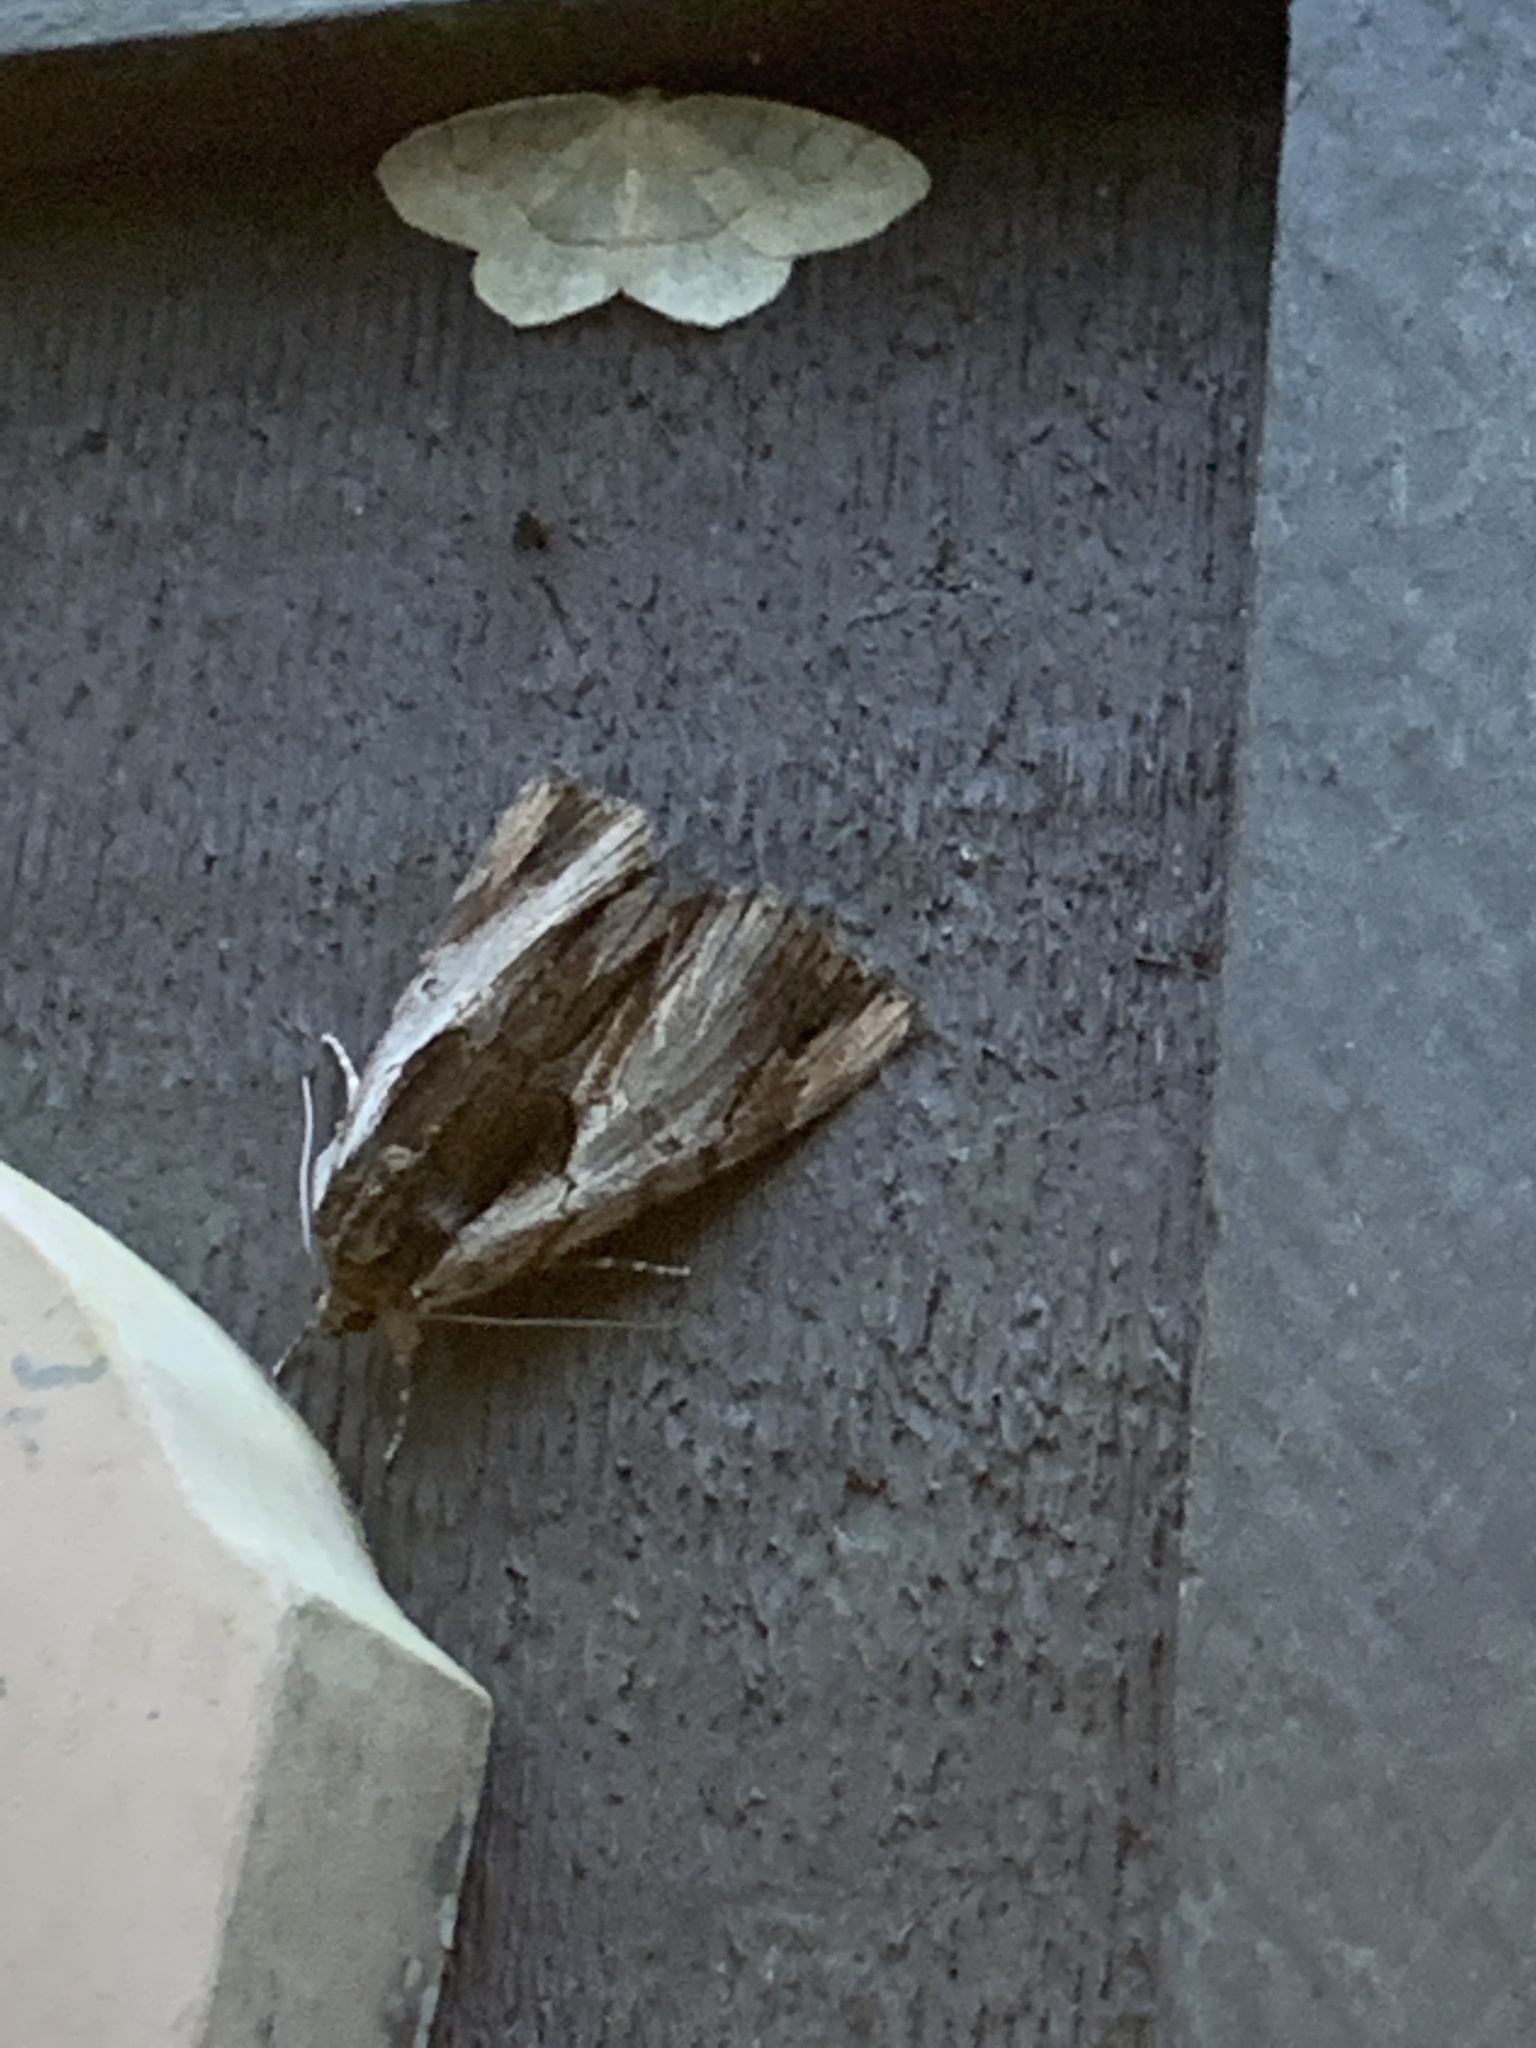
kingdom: Animalia
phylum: Arthropoda
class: Insecta
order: Lepidoptera
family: Erebidae
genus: Catocala
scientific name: Catocala ultronia
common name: Ultronia underwing
